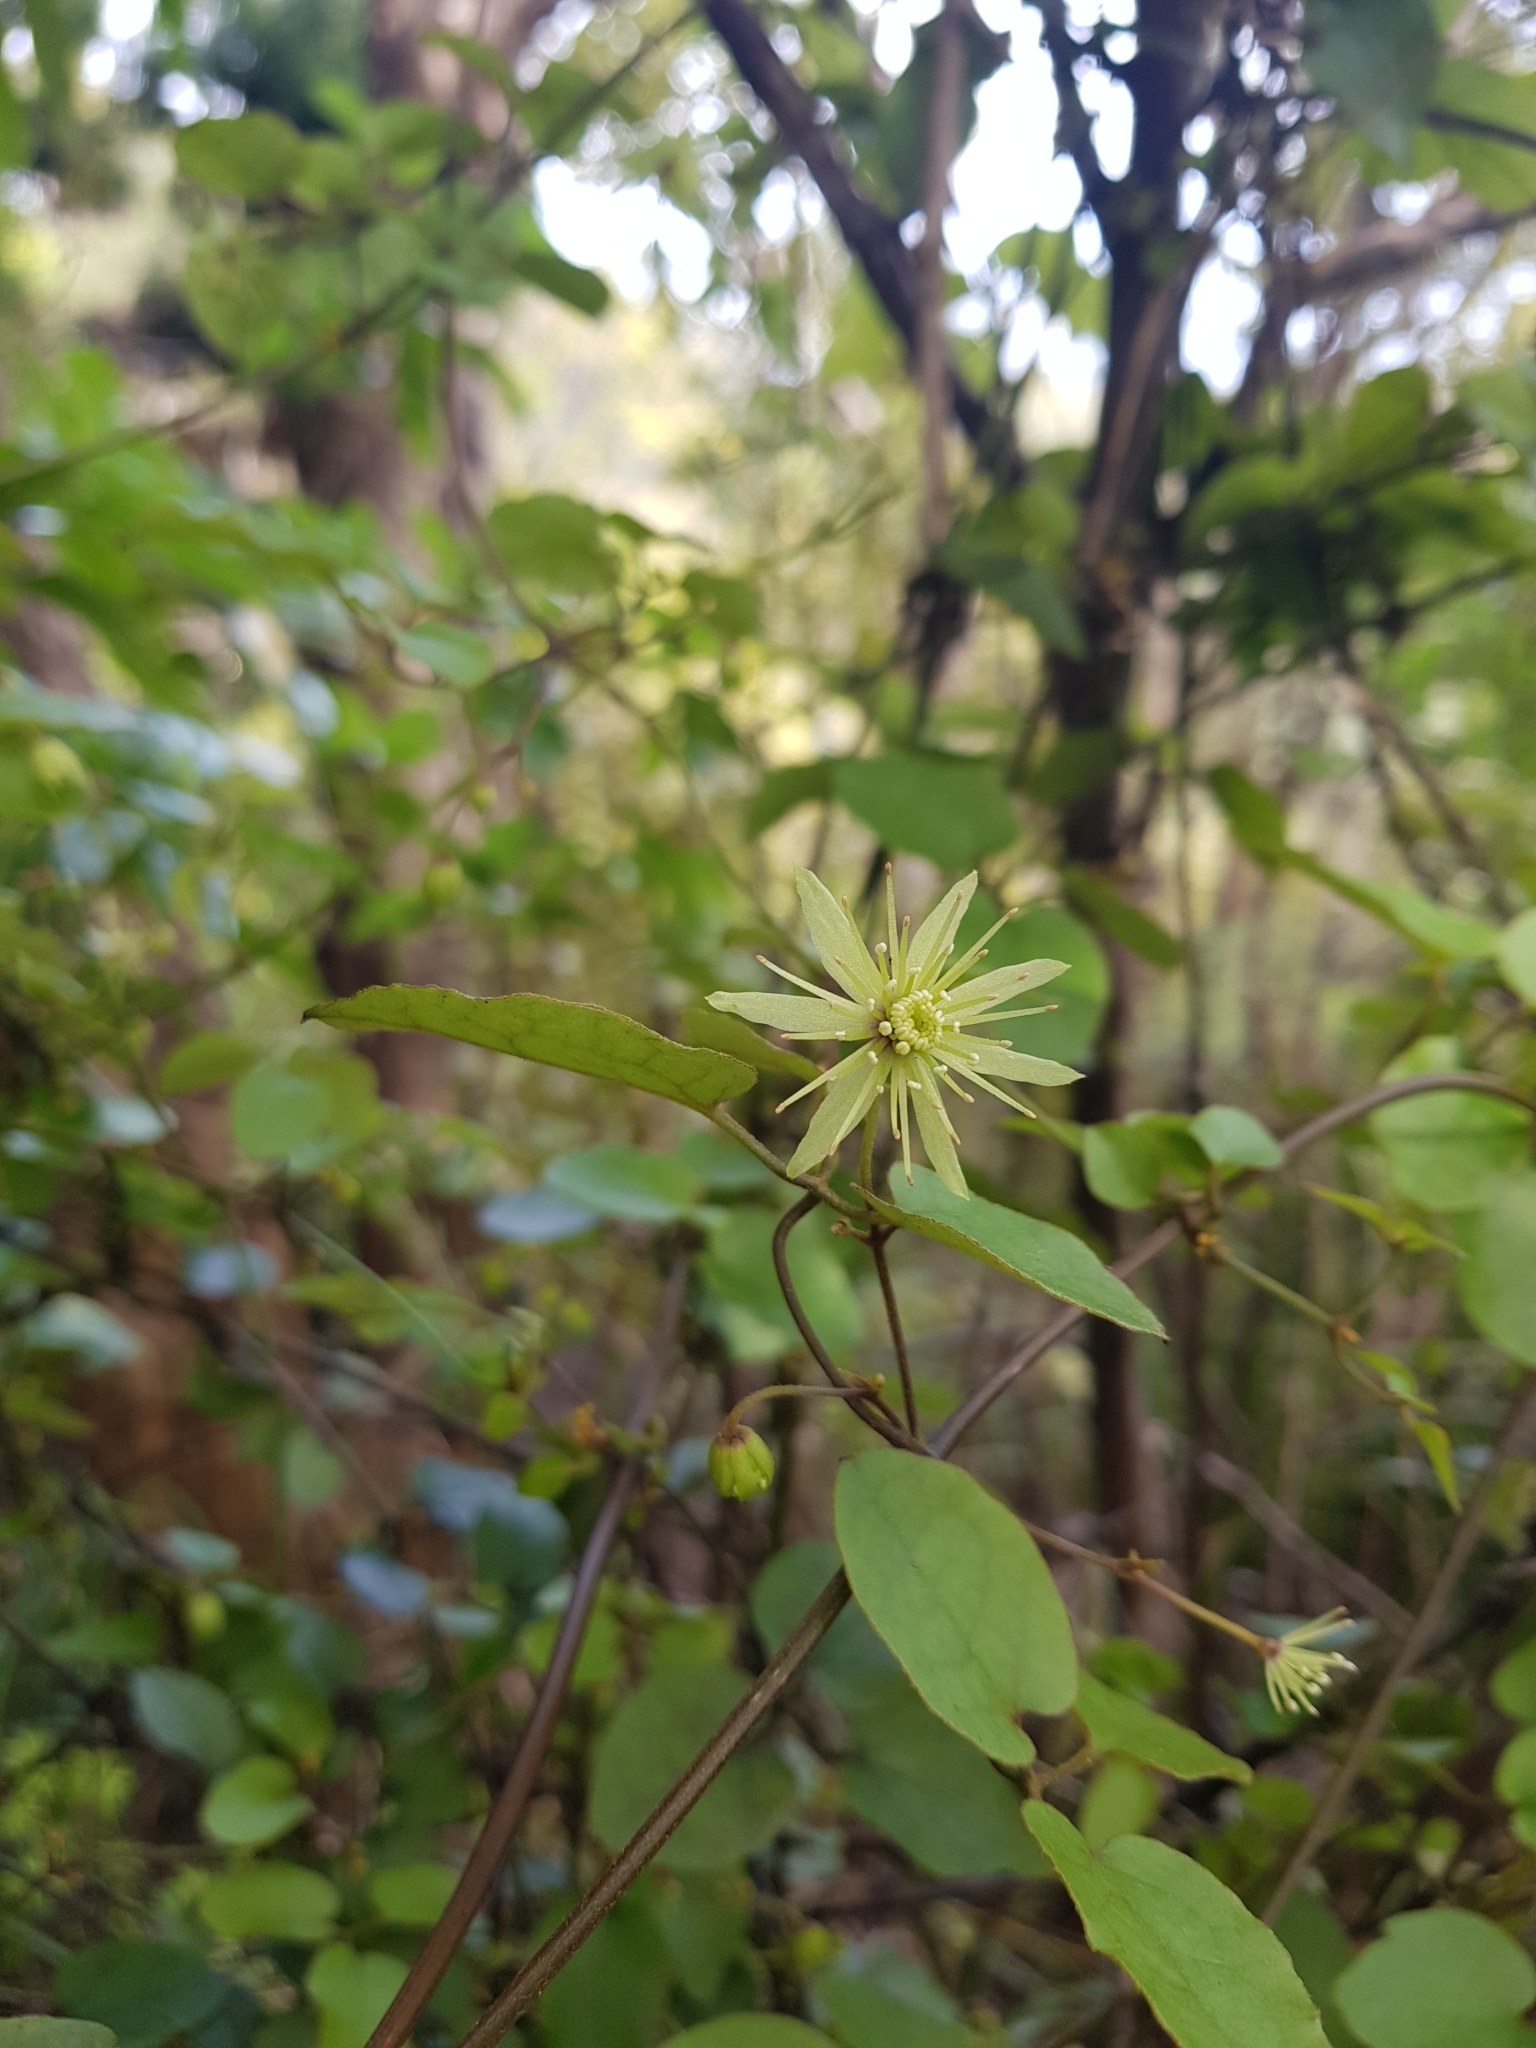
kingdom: Plantae
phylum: Tracheophyta
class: Magnoliopsida
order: Ranunculales
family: Ranunculaceae
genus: Clematis
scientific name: Clematis cunninghamii
